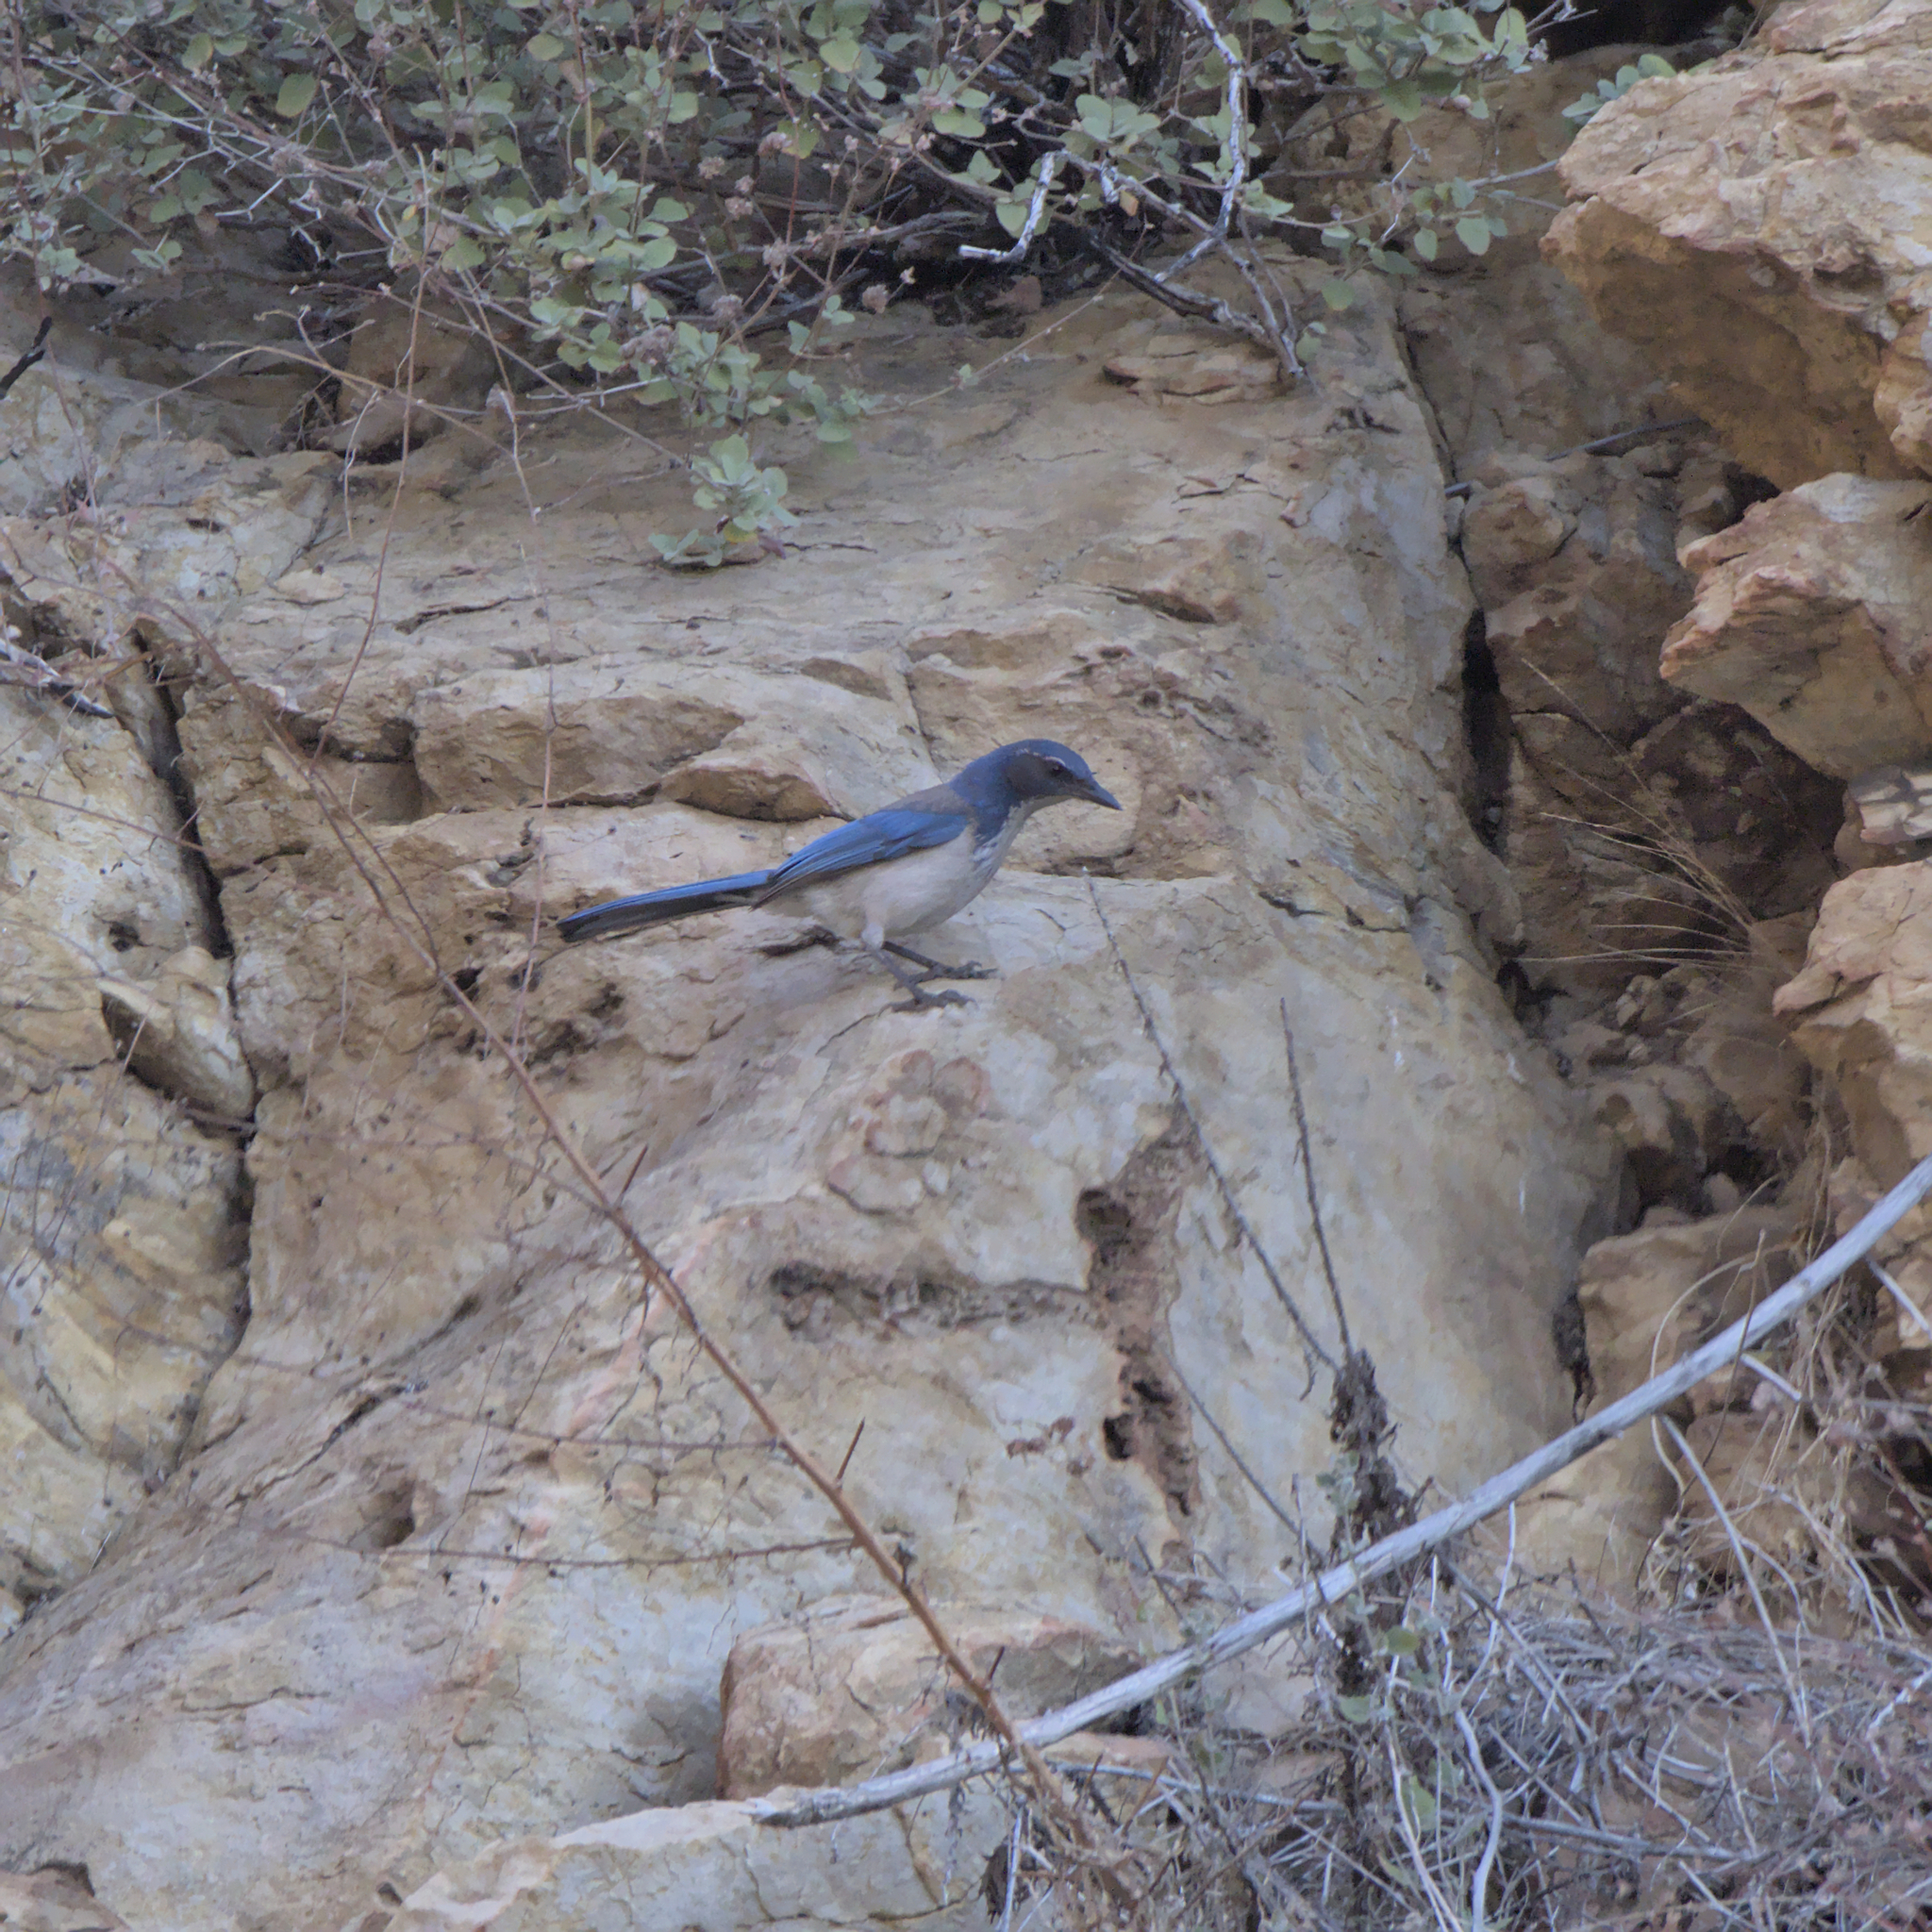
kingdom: Animalia
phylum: Chordata
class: Aves
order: Passeriformes
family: Corvidae
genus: Aphelocoma
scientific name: Aphelocoma californica
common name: California scrub-jay
